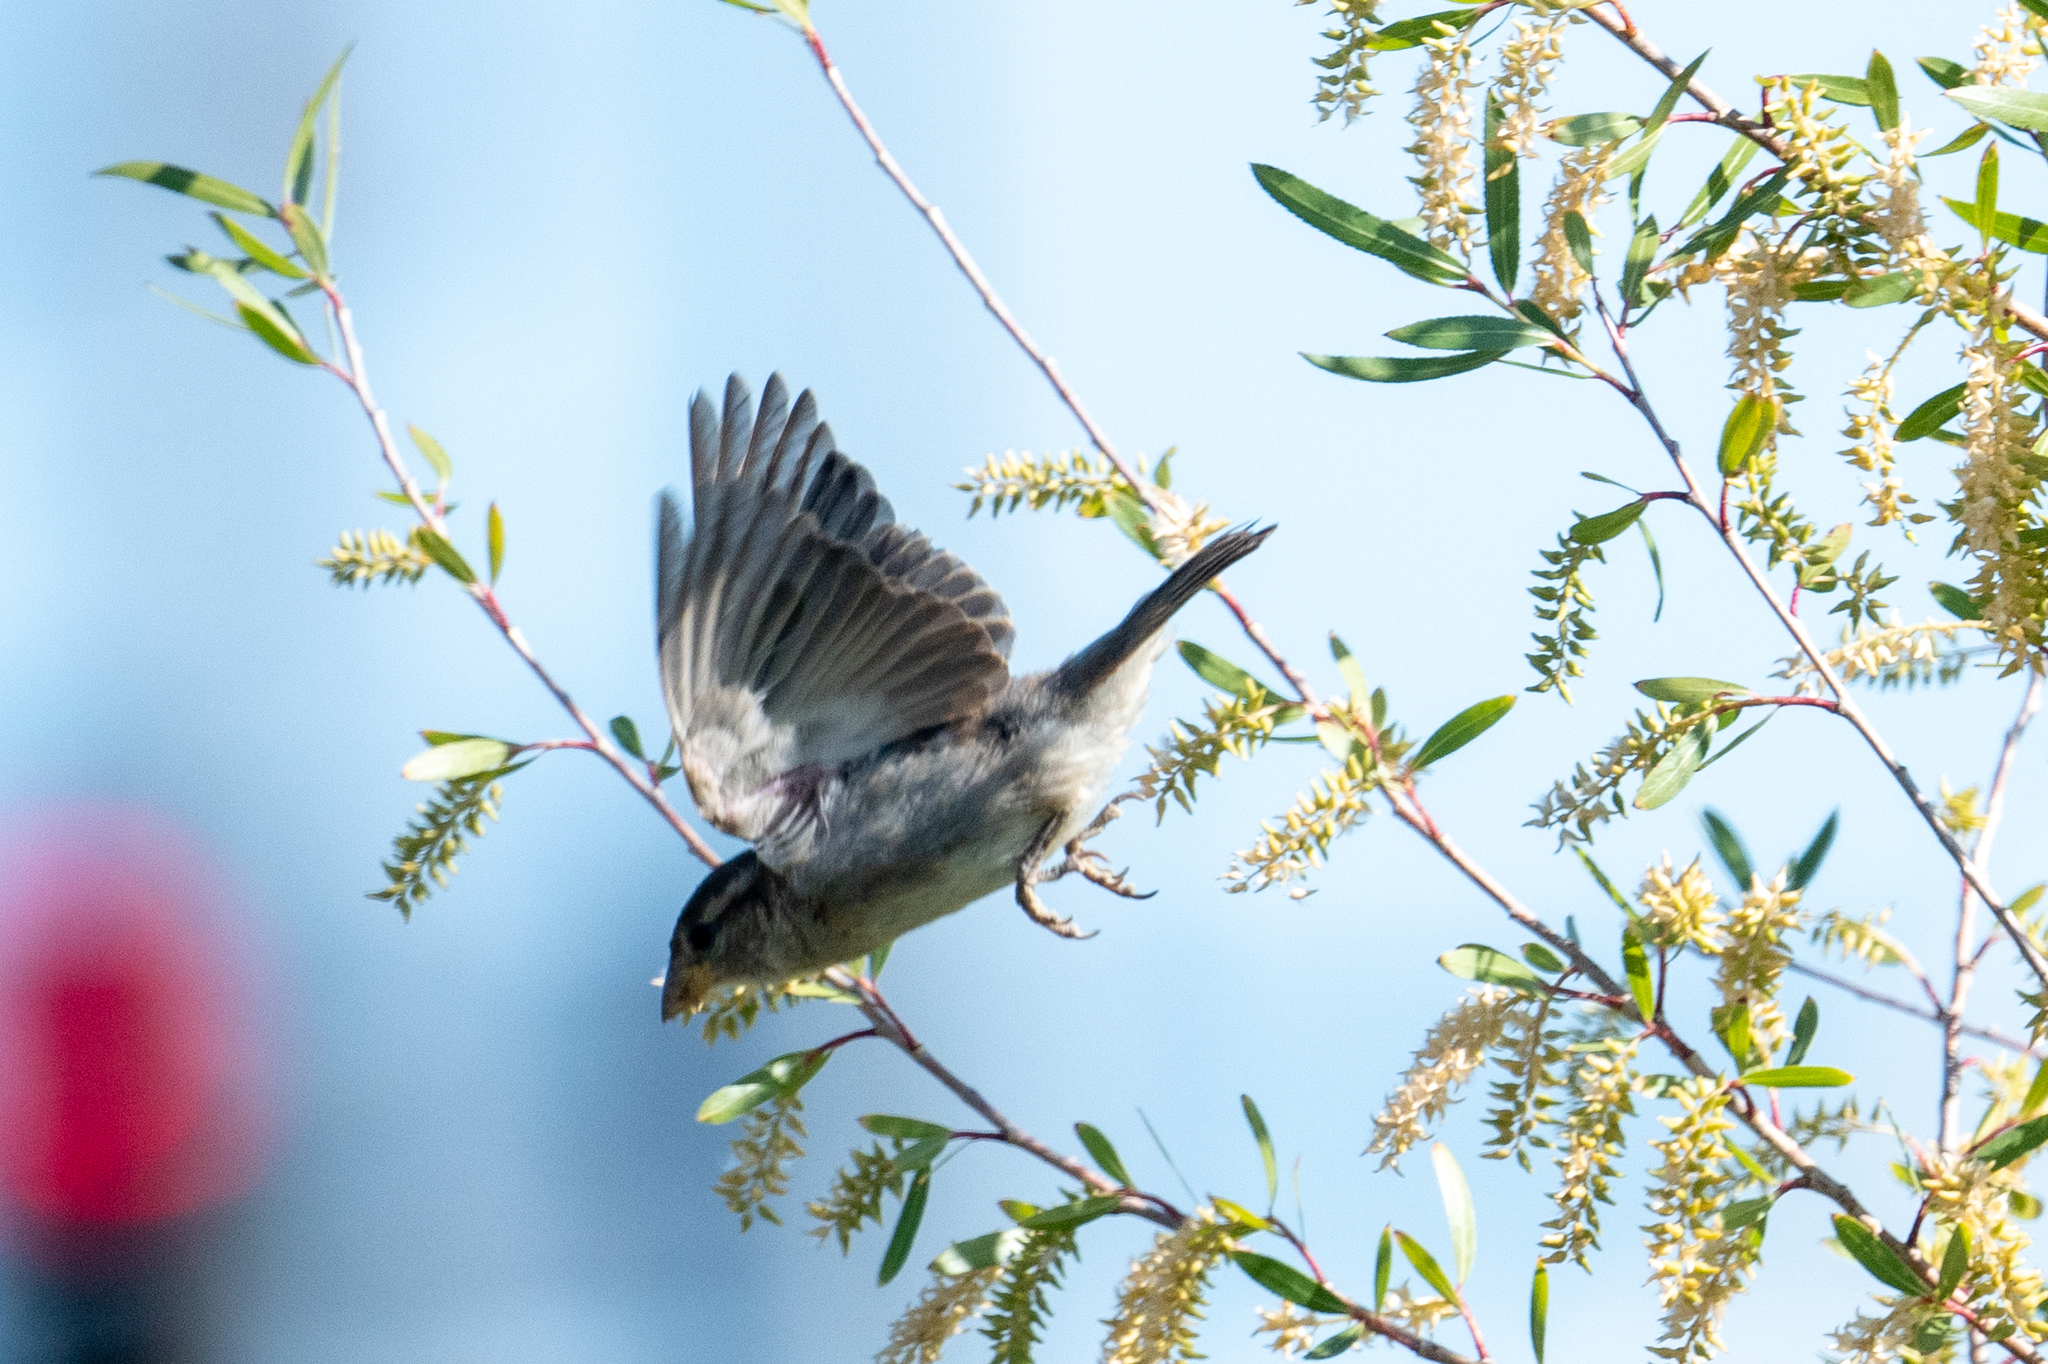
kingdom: Animalia
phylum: Chordata
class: Aves
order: Passeriformes
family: Passeridae
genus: Passer
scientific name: Passer domesticus
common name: House sparrow
